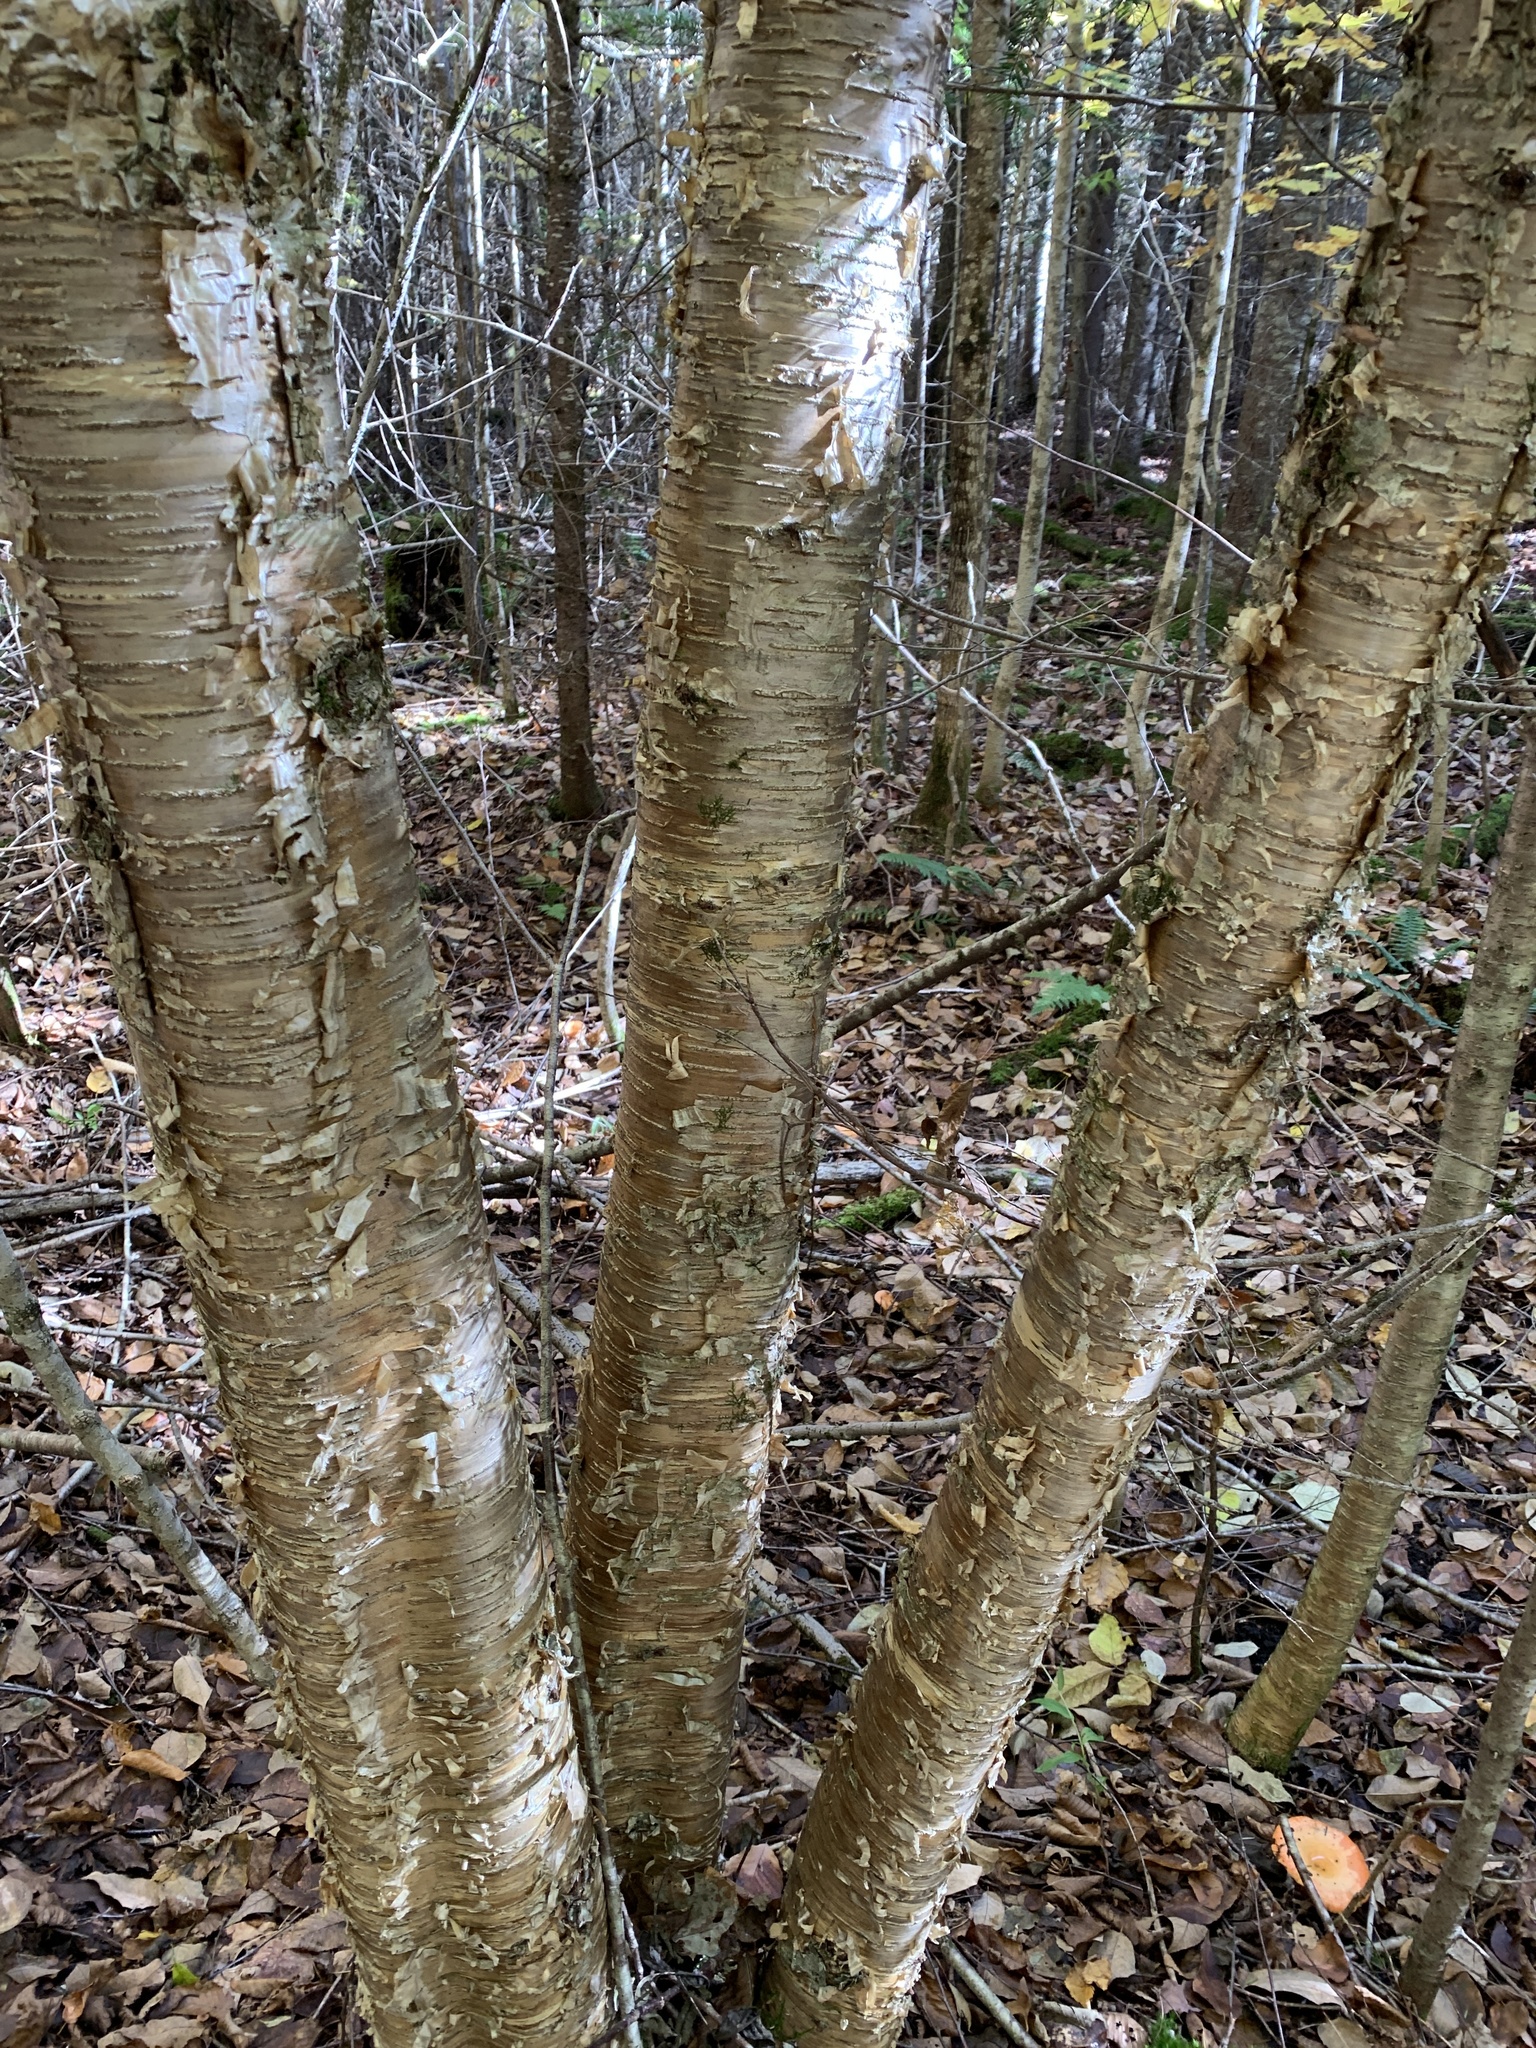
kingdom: Plantae
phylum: Tracheophyta
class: Magnoliopsida
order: Fagales
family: Betulaceae
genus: Betula
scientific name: Betula alleghaniensis
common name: Yellow birch
